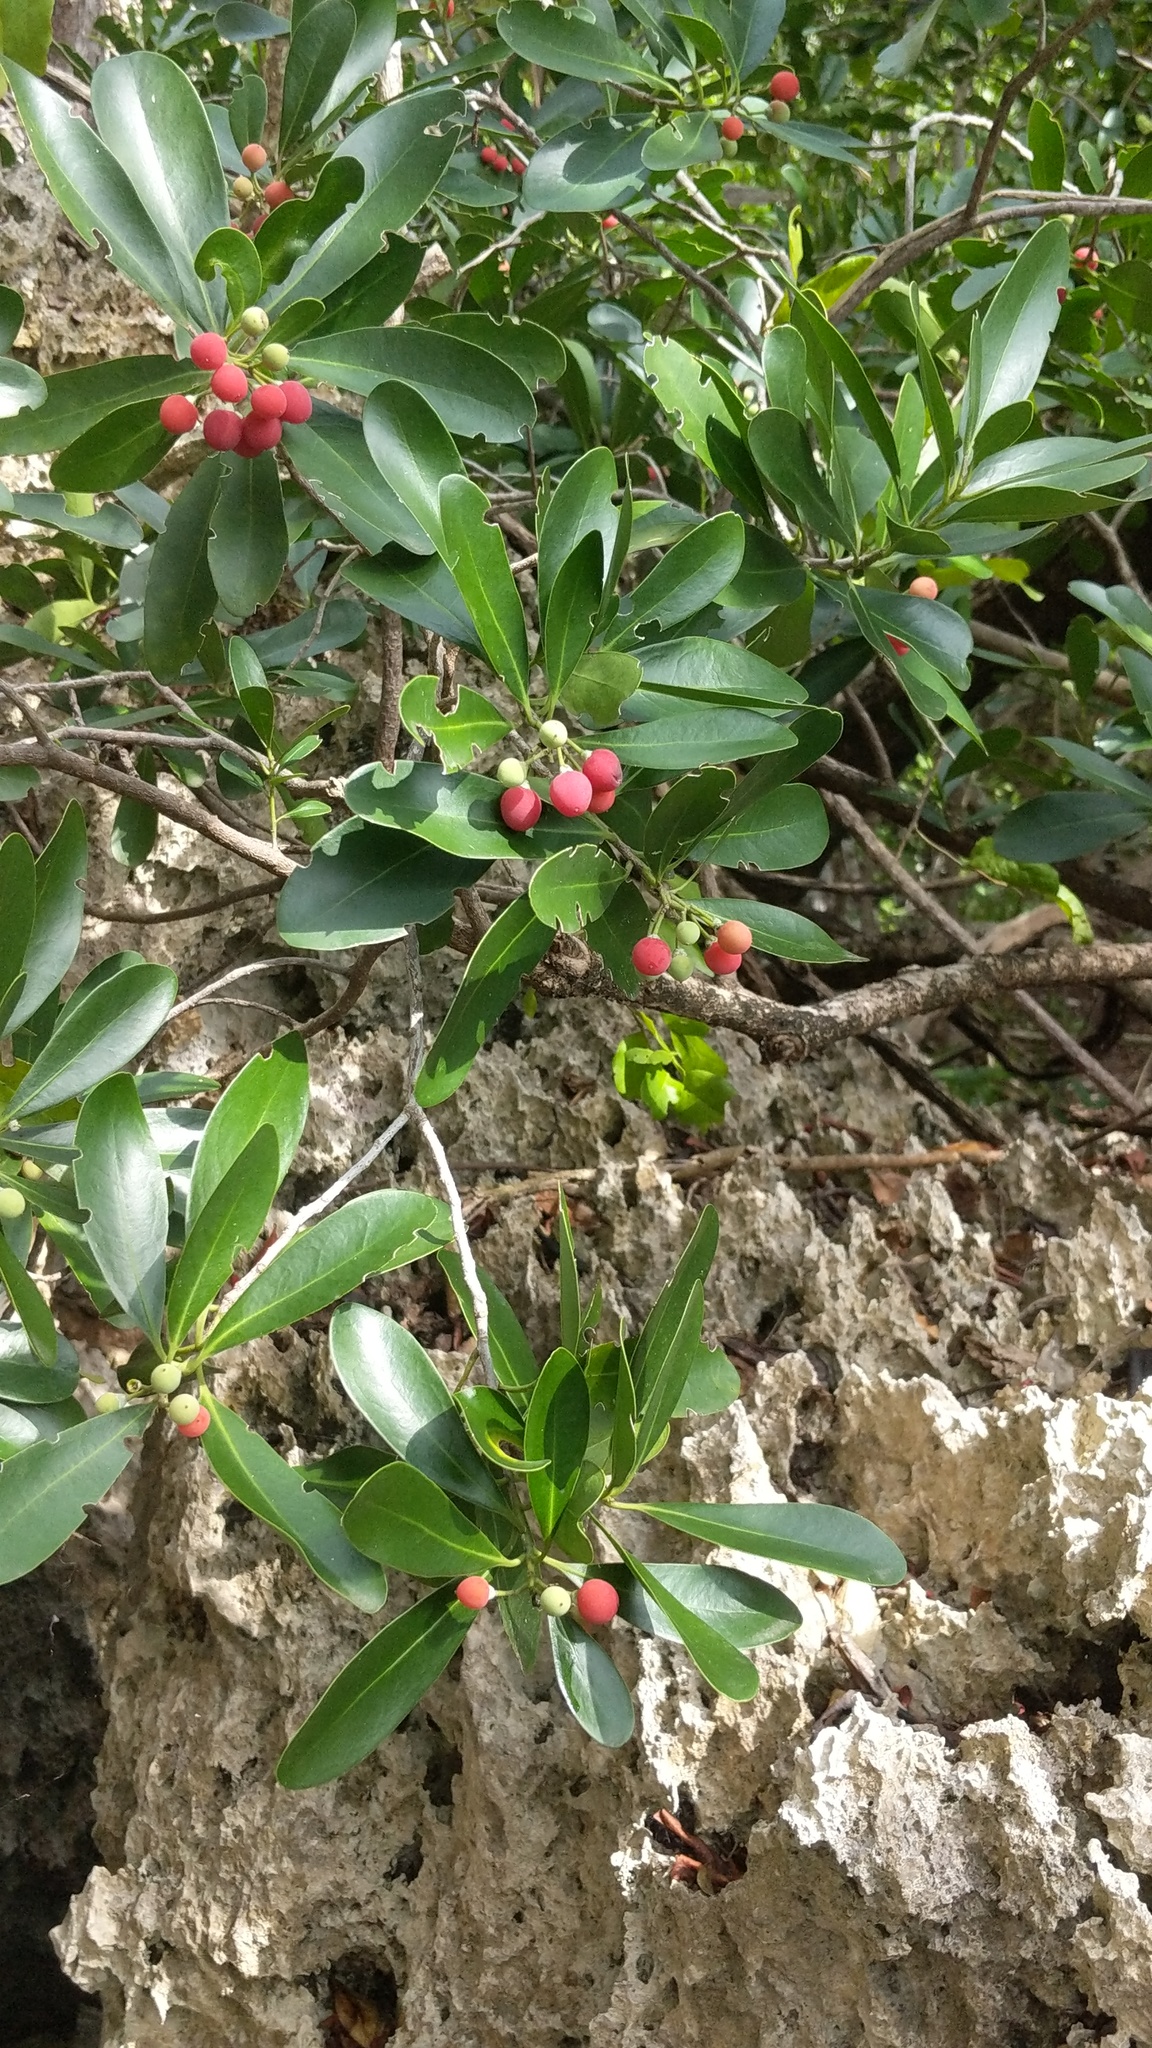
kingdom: Plantae
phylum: Tracheophyta
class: Magnoliopsida
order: Canellales
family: Canellaceae
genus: Canella
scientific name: Canella winterana
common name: Canella
